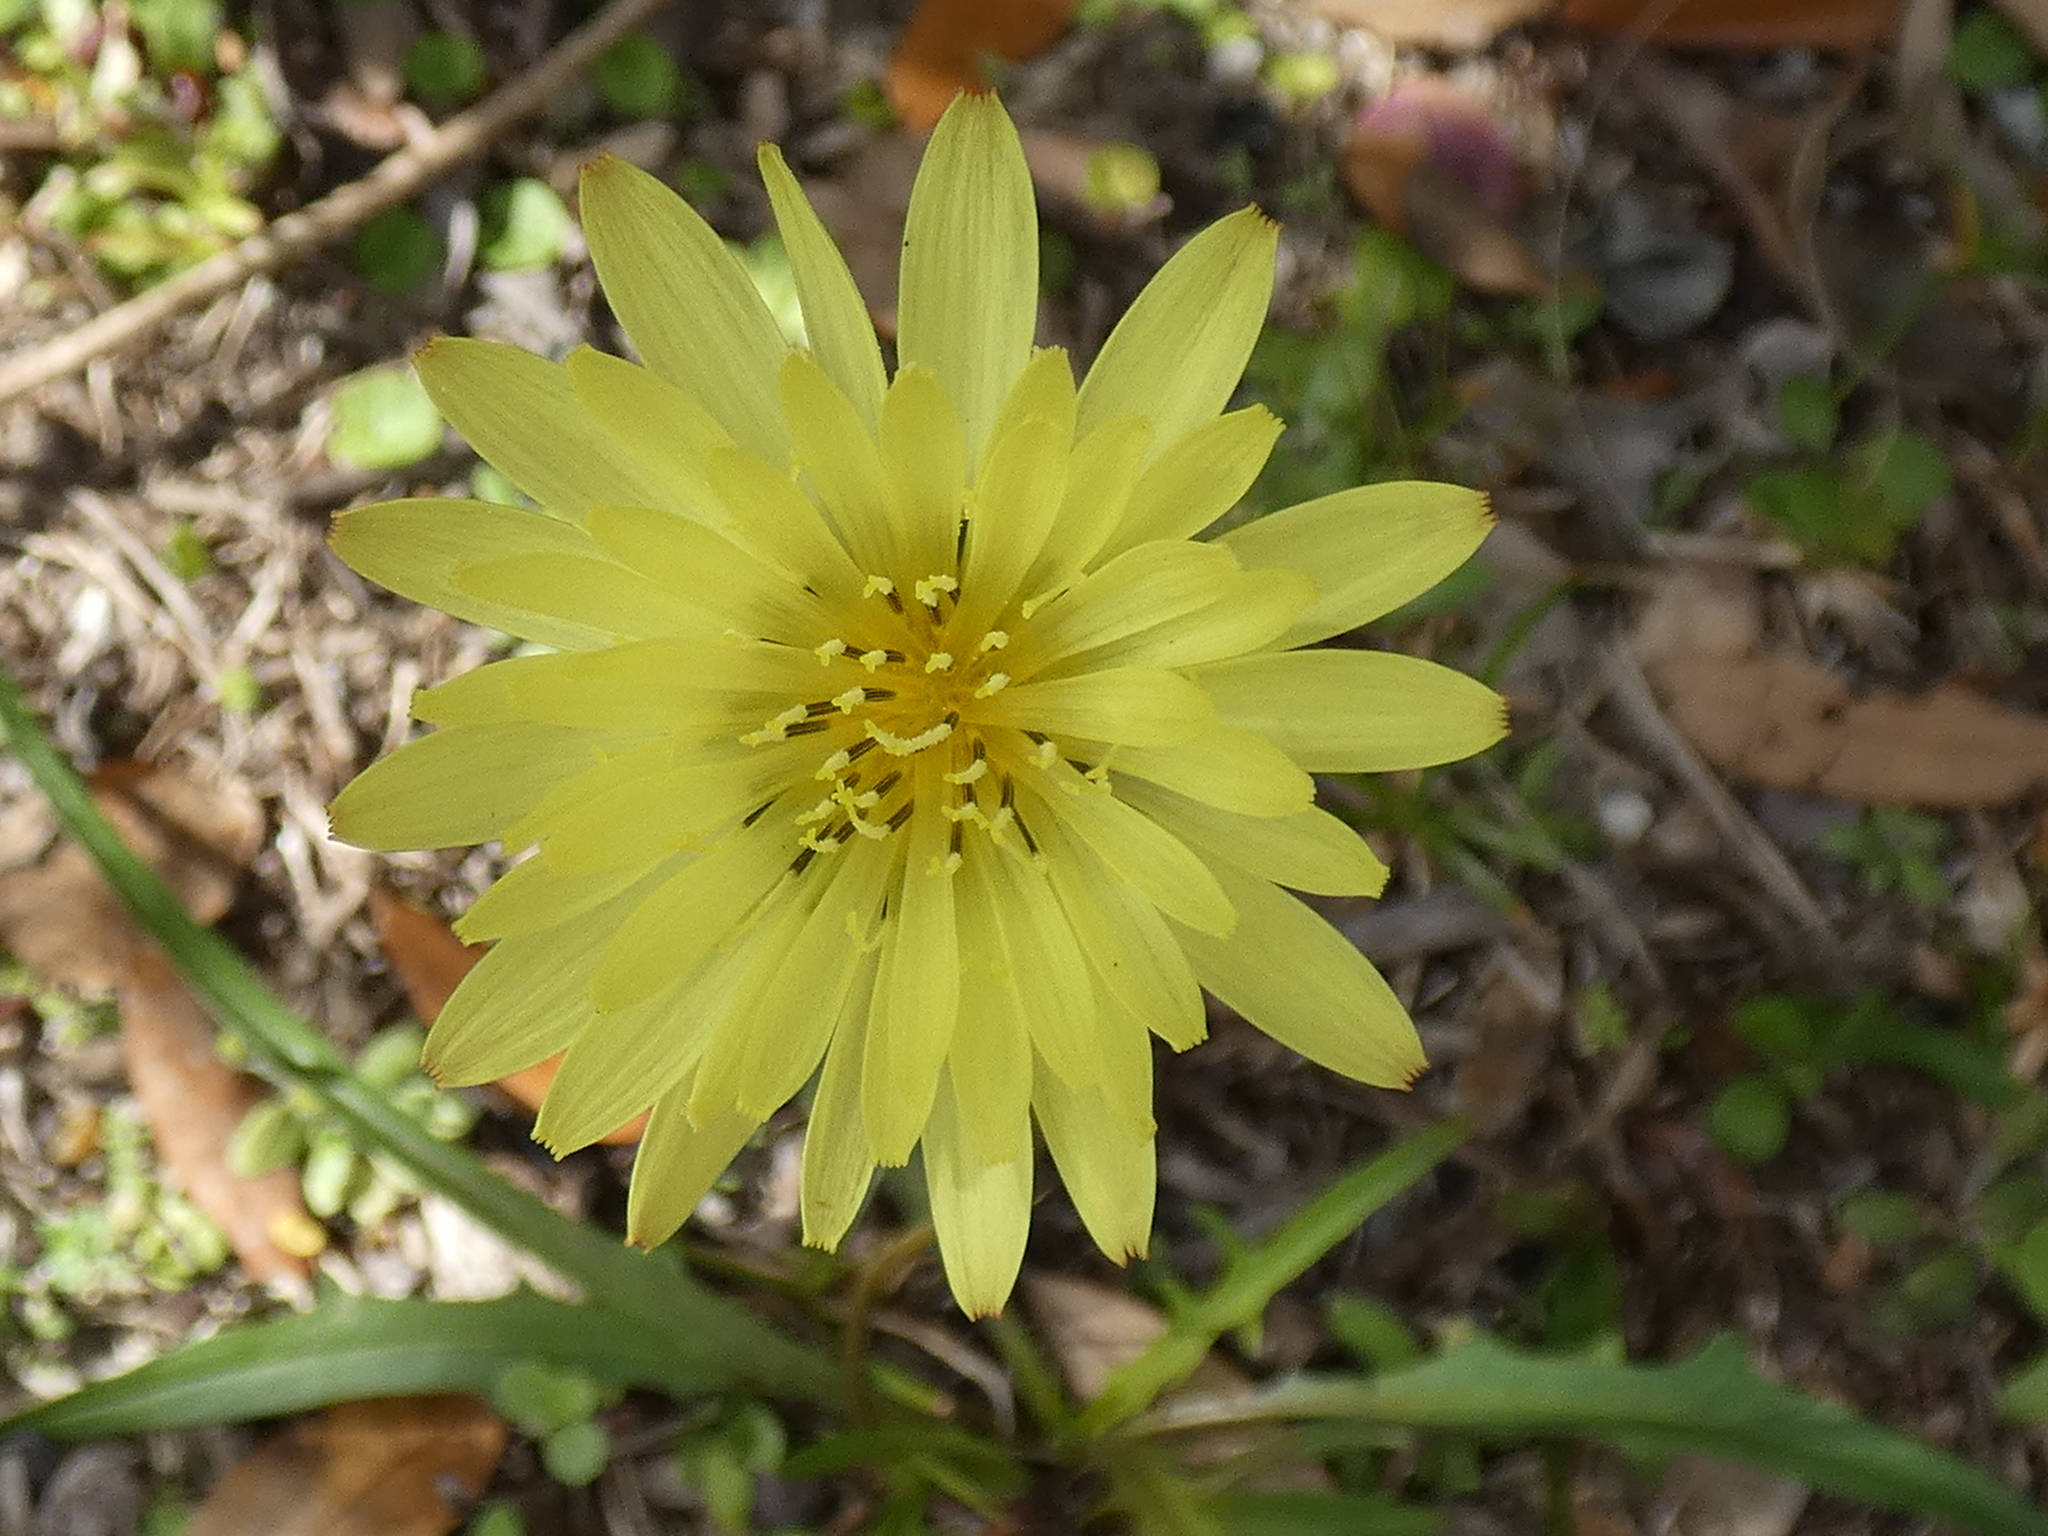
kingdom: Plantae
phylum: Tracheophyta
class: Magnoliopsida
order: Asterales
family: Asteraceae
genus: Pyrrhopappus
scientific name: Pyrrhopappus carolinianus
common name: Carolina desert-chicory
